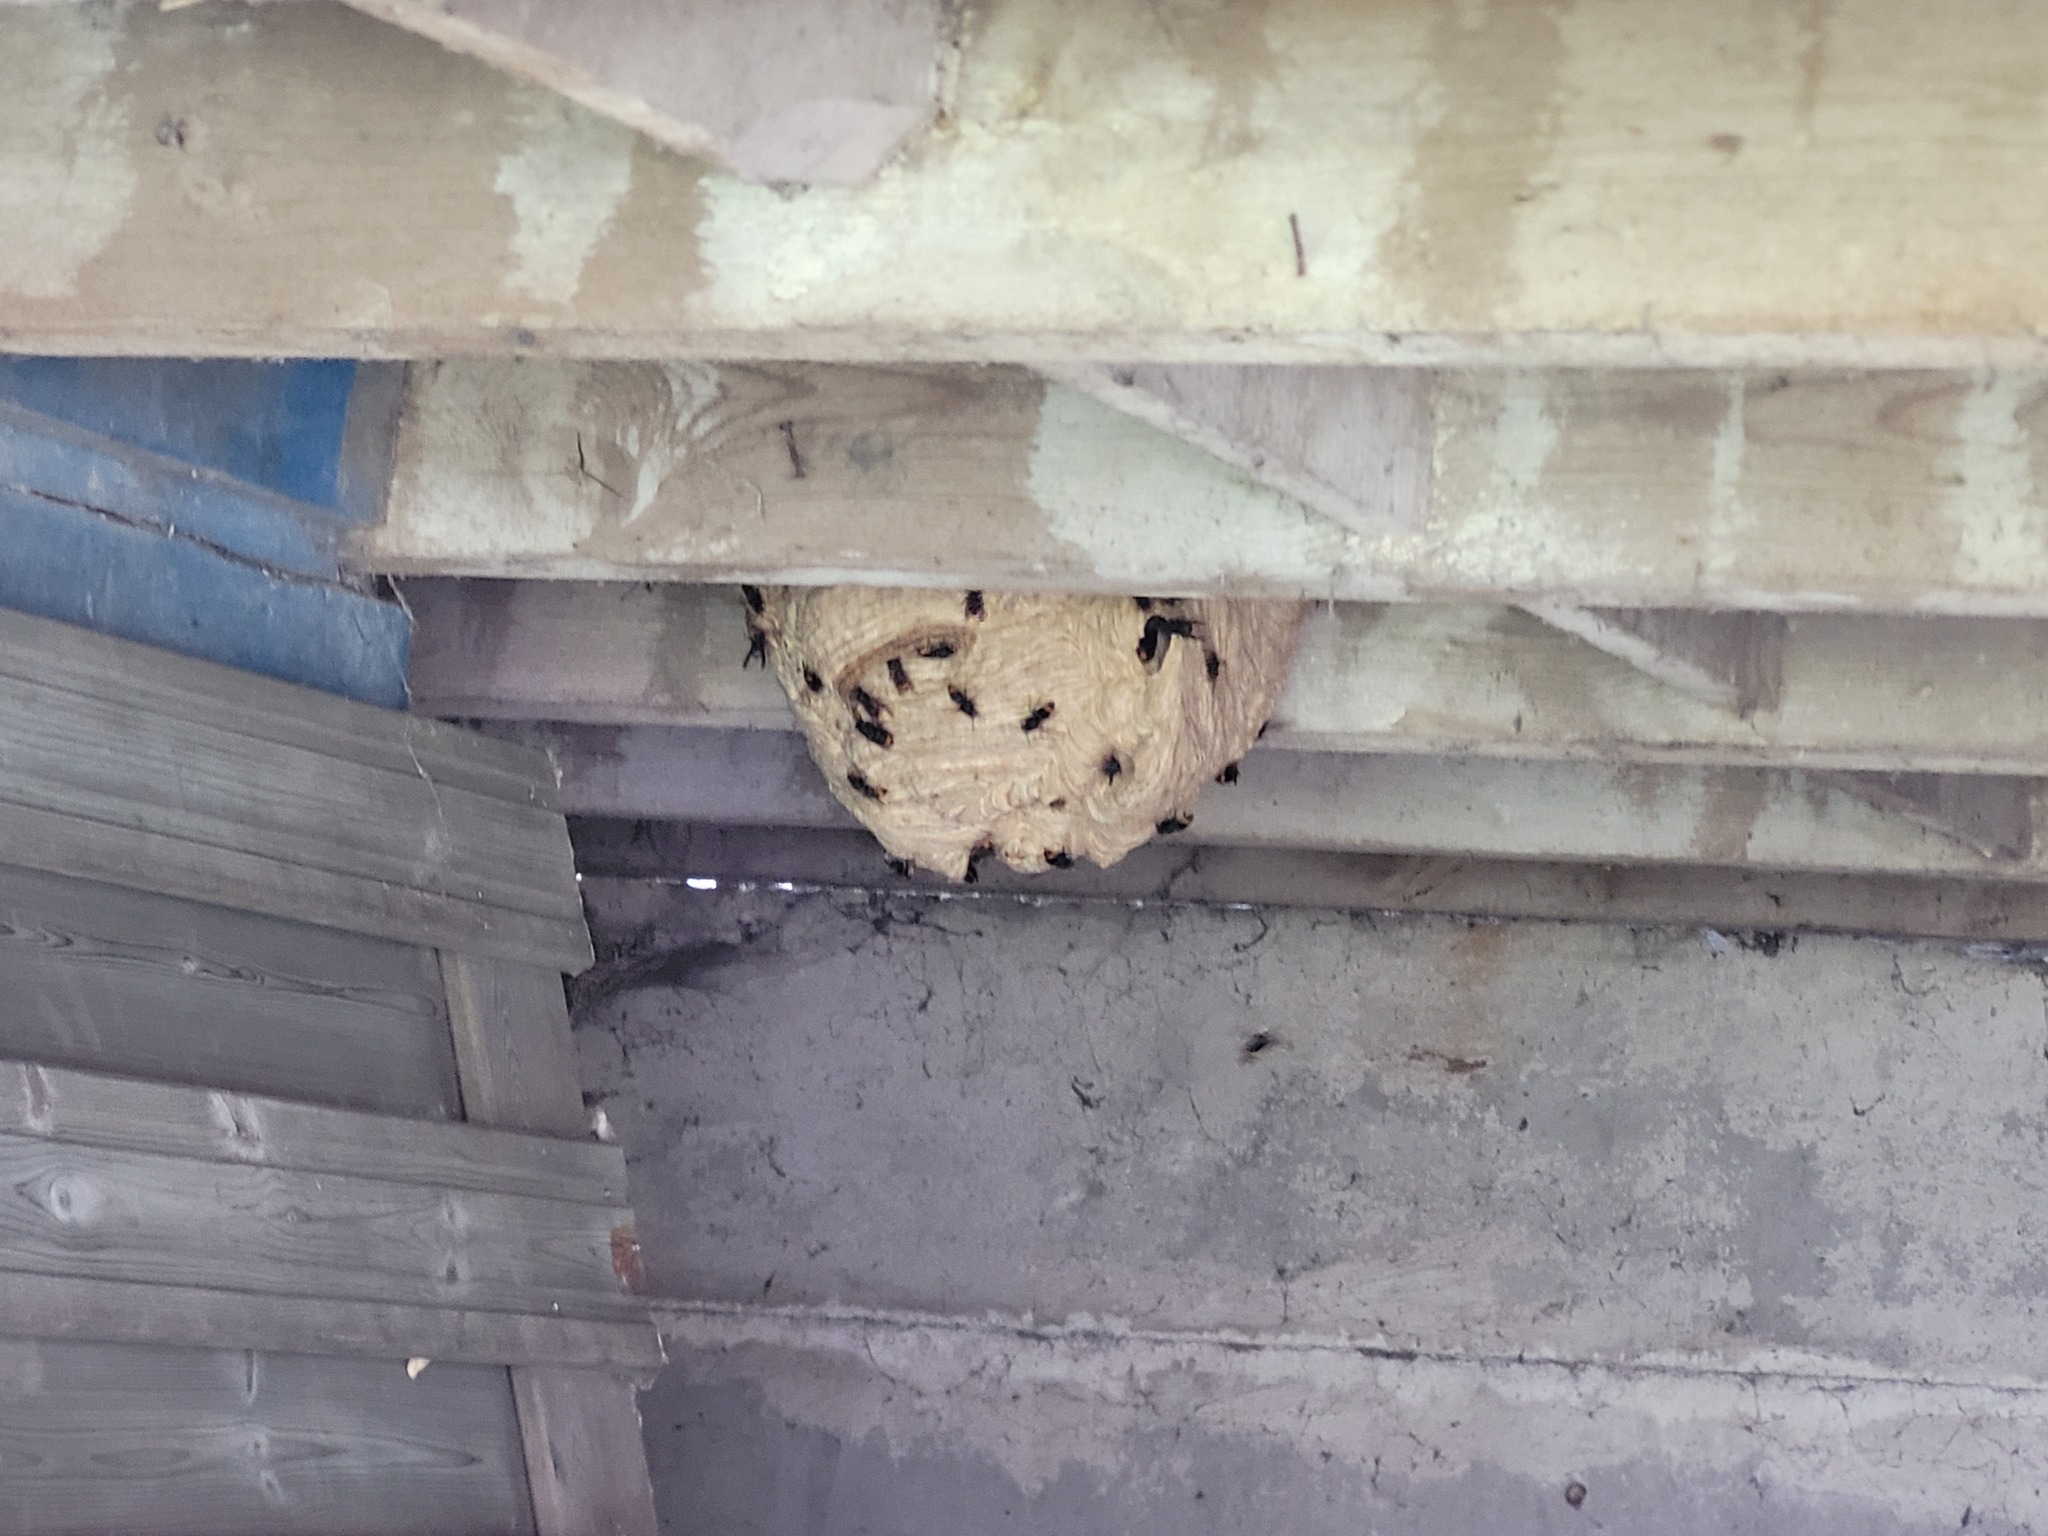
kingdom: Animalia
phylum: Arthropoda
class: Insecta
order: Hymenoptera
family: Vespidae
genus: Vespa
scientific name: Vespa velutina
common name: Asian hornet
